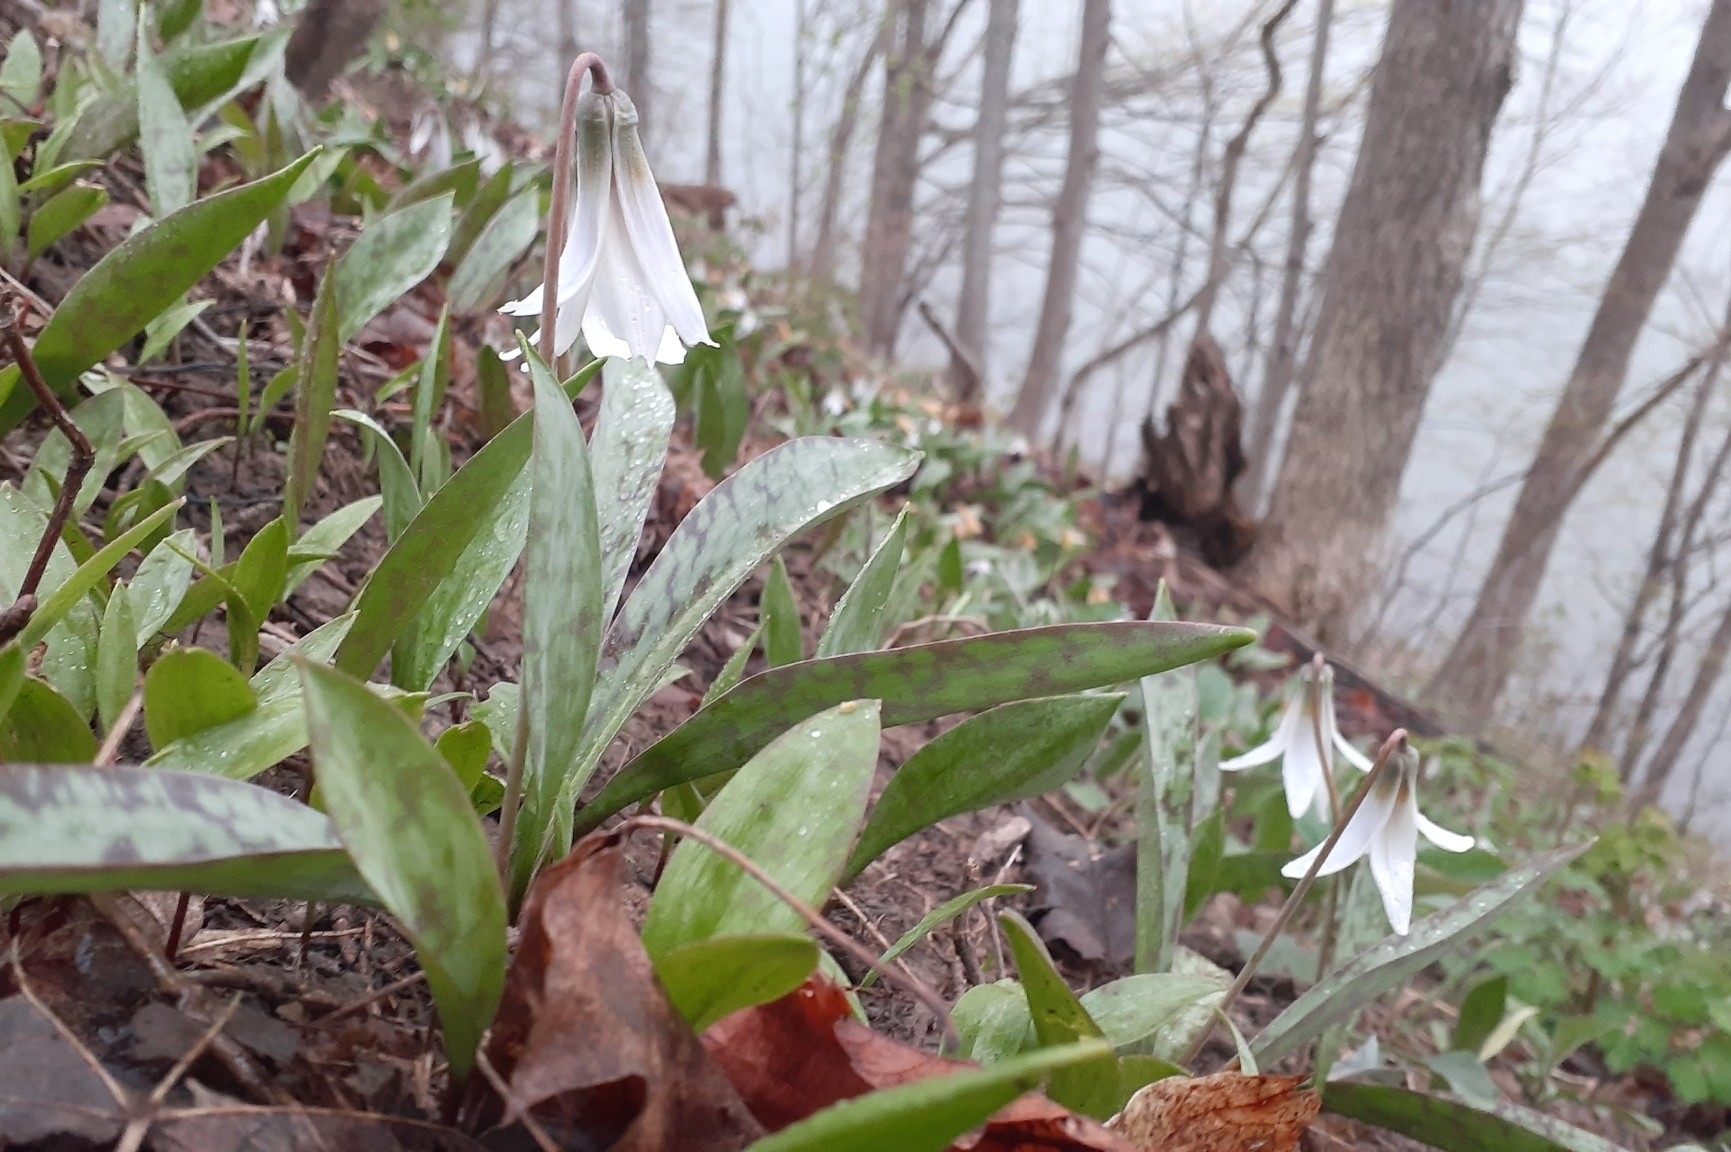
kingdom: Plantae
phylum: Tracheophyta
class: Liliopsida
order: Liliales
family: Liliaceae
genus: Erythronium
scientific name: Erythronium albidum
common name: White trout-lily
